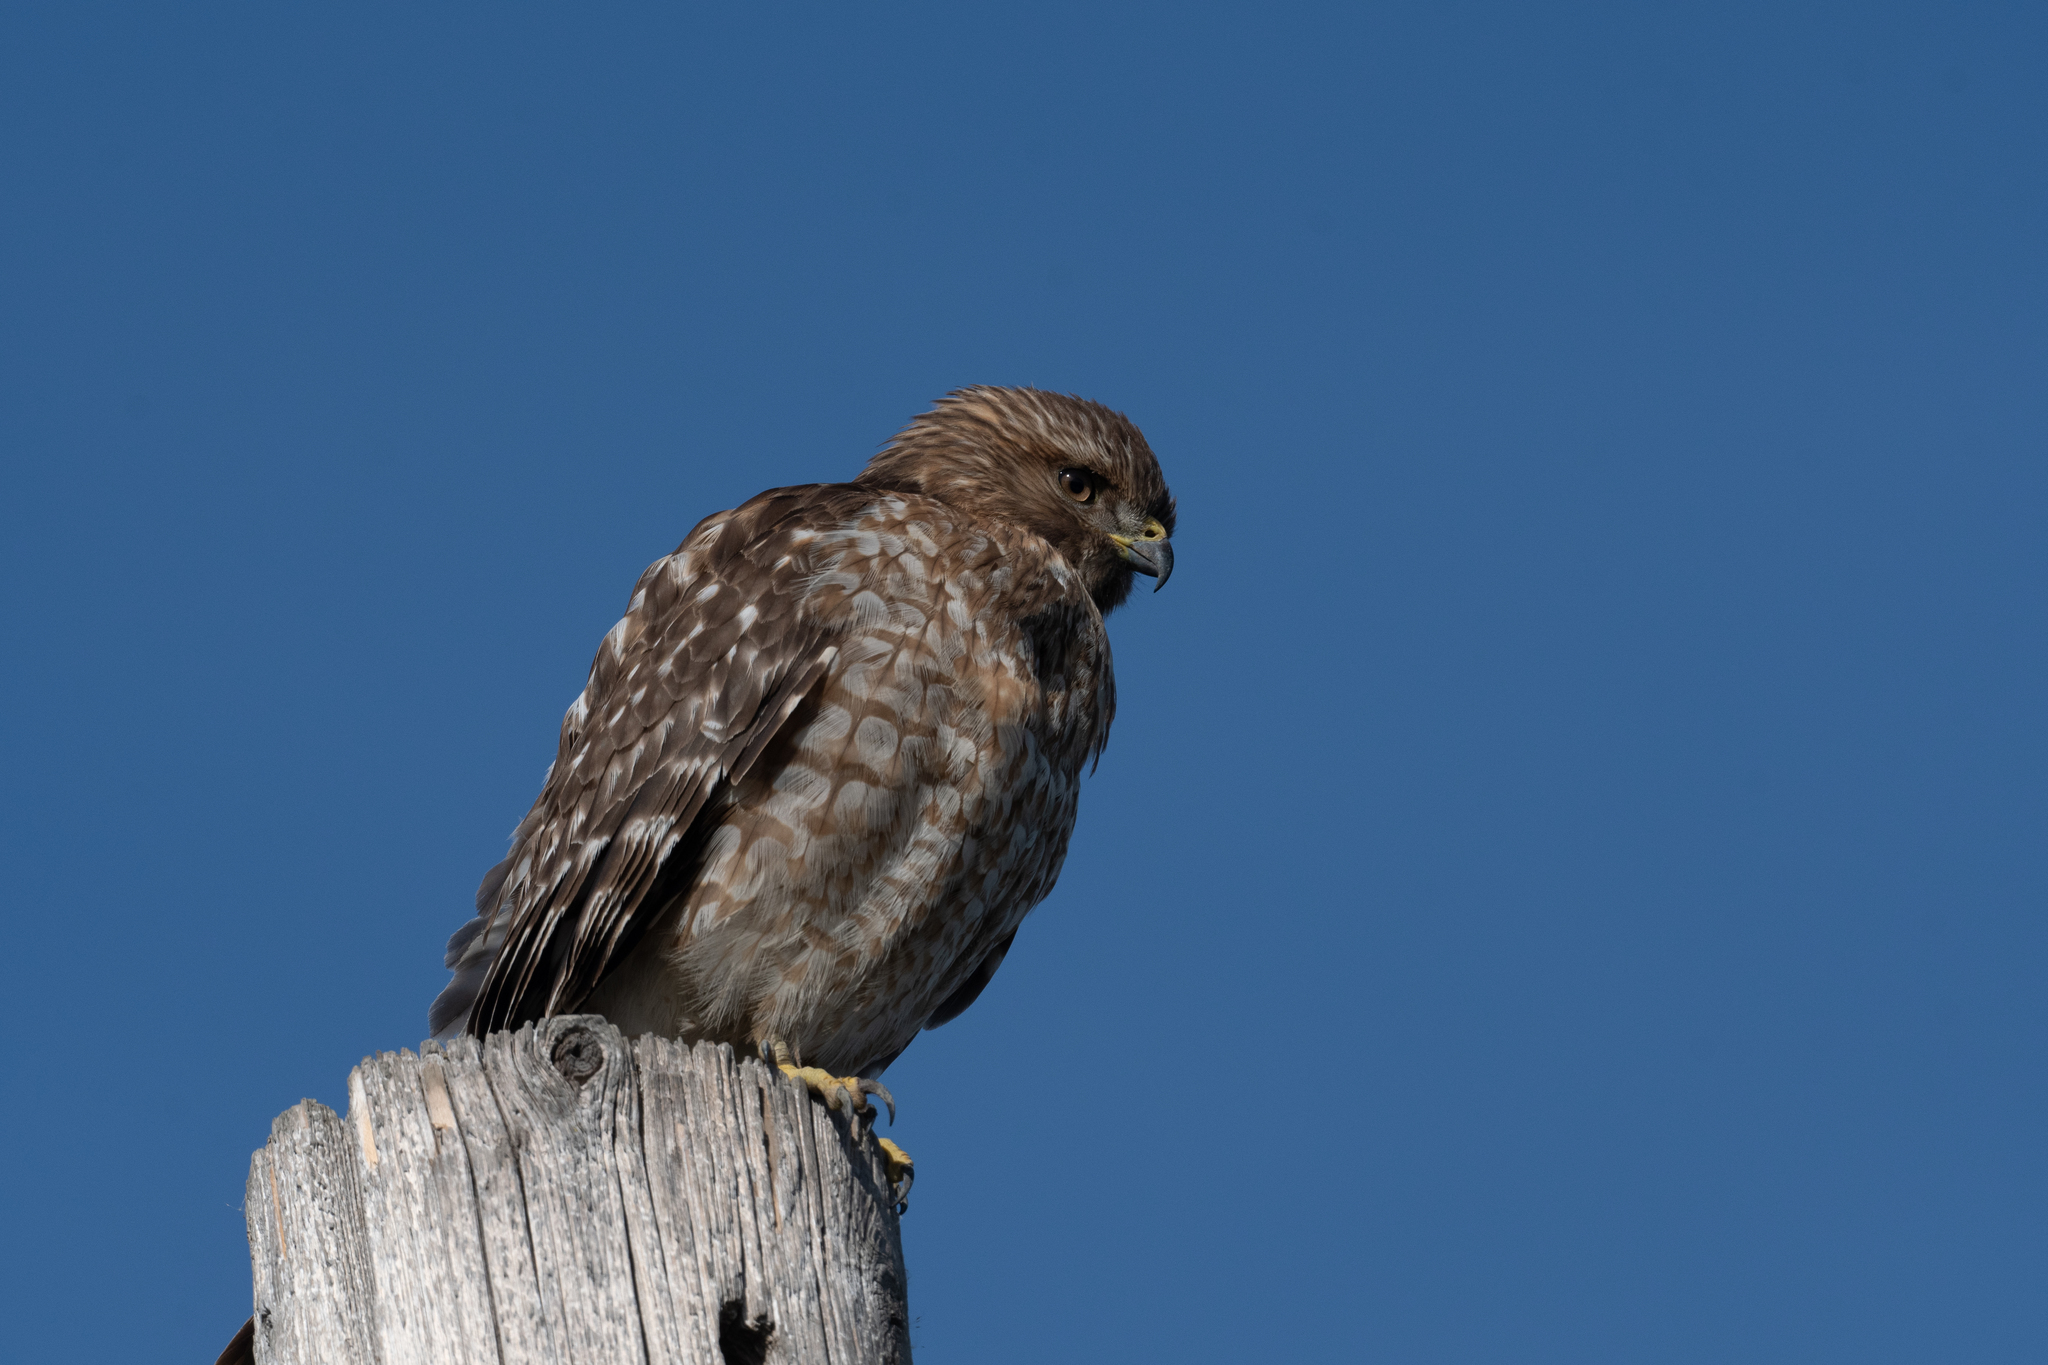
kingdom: Animalia
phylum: Chordata
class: Aves
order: Accipitriformes
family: Accipitridae
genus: Buteo
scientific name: Buteo lineatus
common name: Red-shouldered hawk
